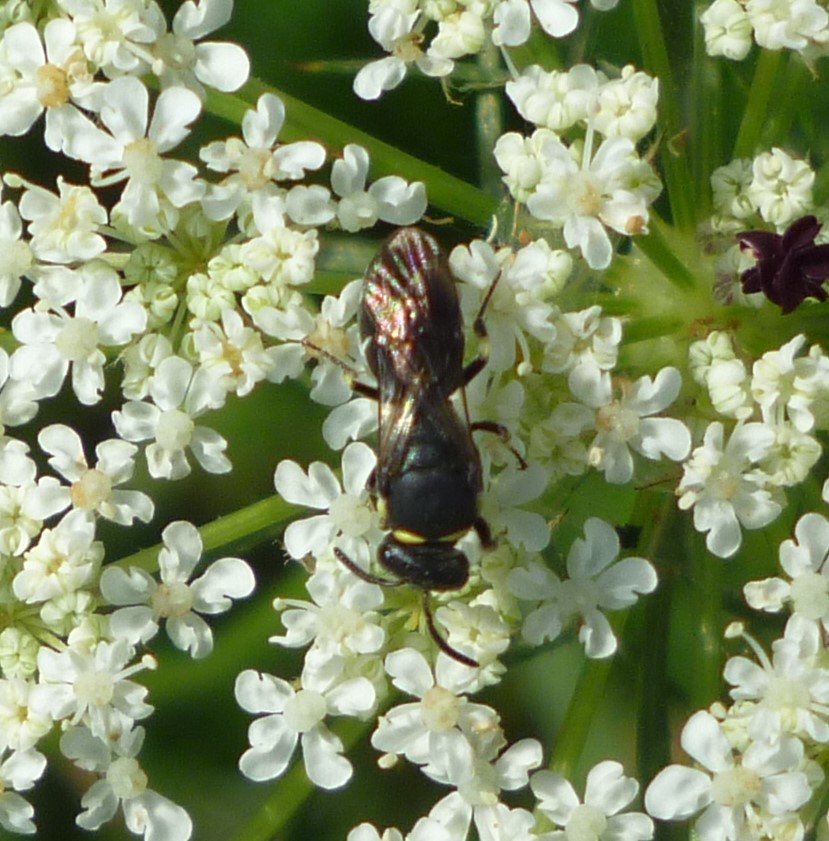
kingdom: Animalia
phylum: Arthropoda
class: Insecta
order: Hymenoptera
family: Colletidae
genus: Hylaeus
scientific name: Hylaeus modestus
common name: Yellow-faced bee
